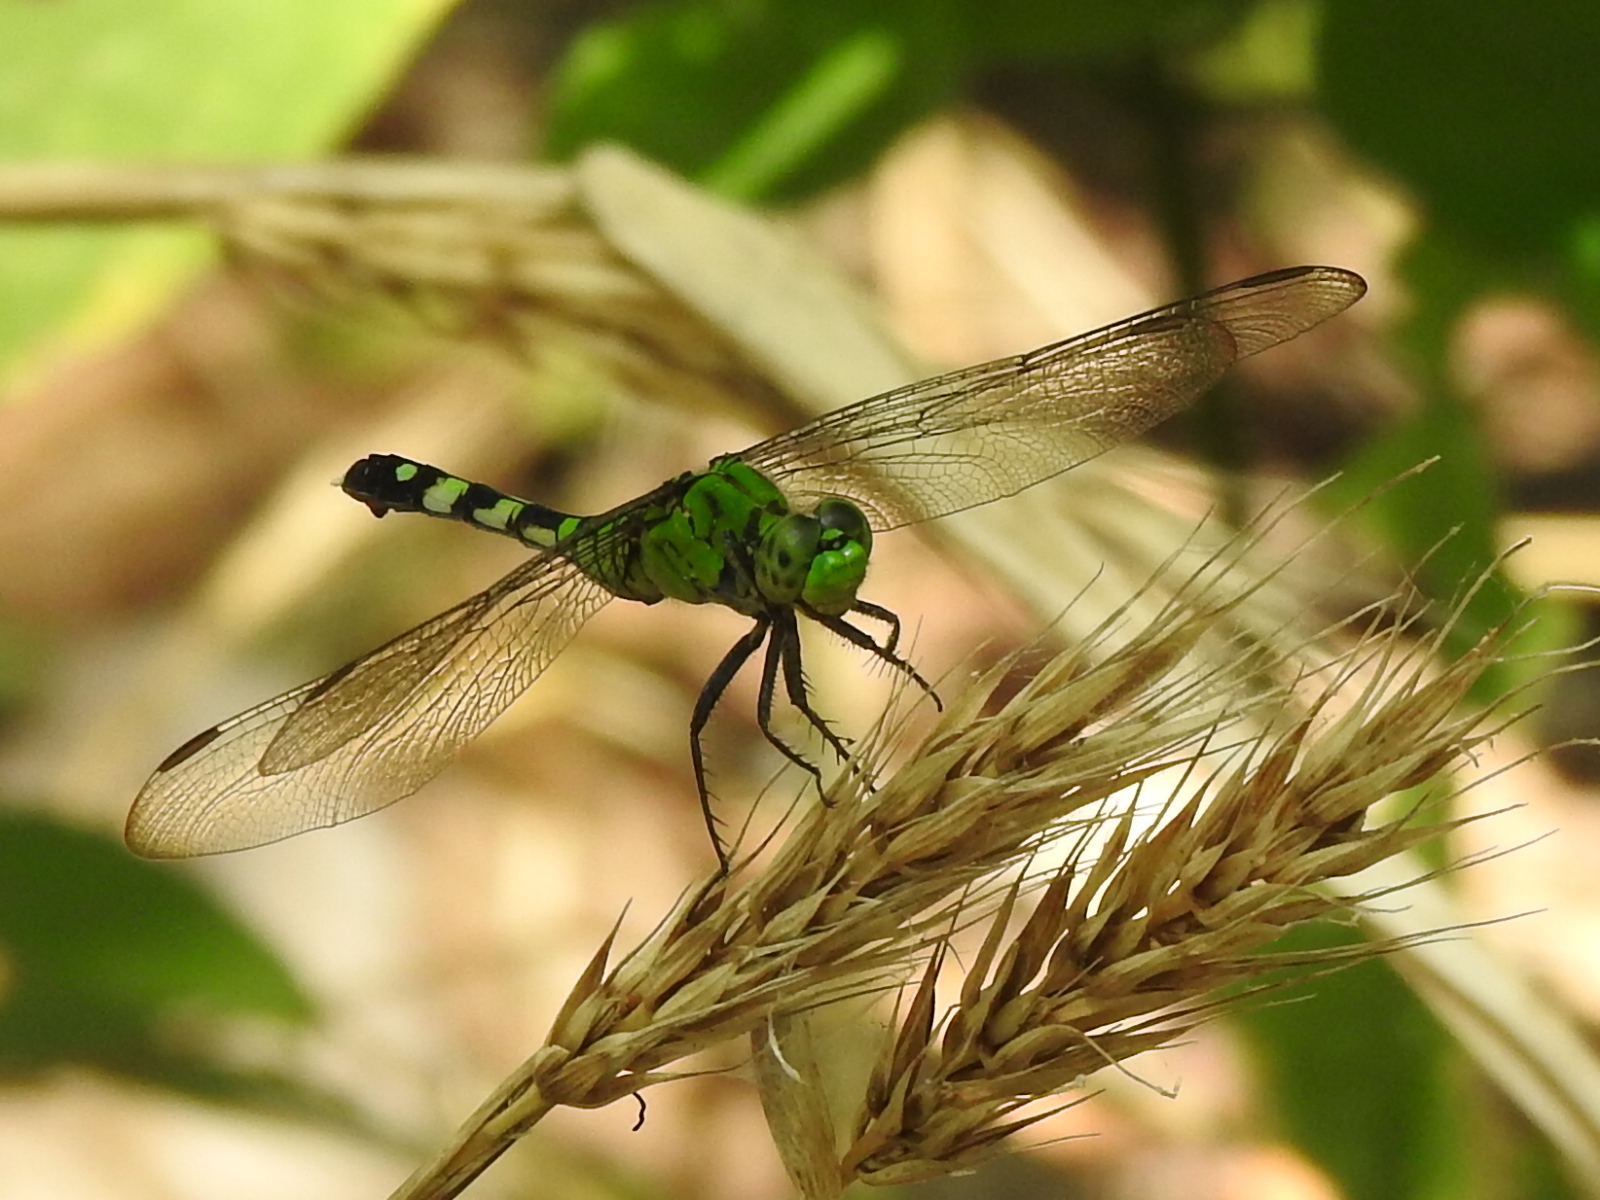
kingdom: Animalia
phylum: Arthropoda
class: Insecta
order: Odonata
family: Libellulidae
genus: Erythemis
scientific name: Erythemis simplicicollis
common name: Eastern pondhawk
